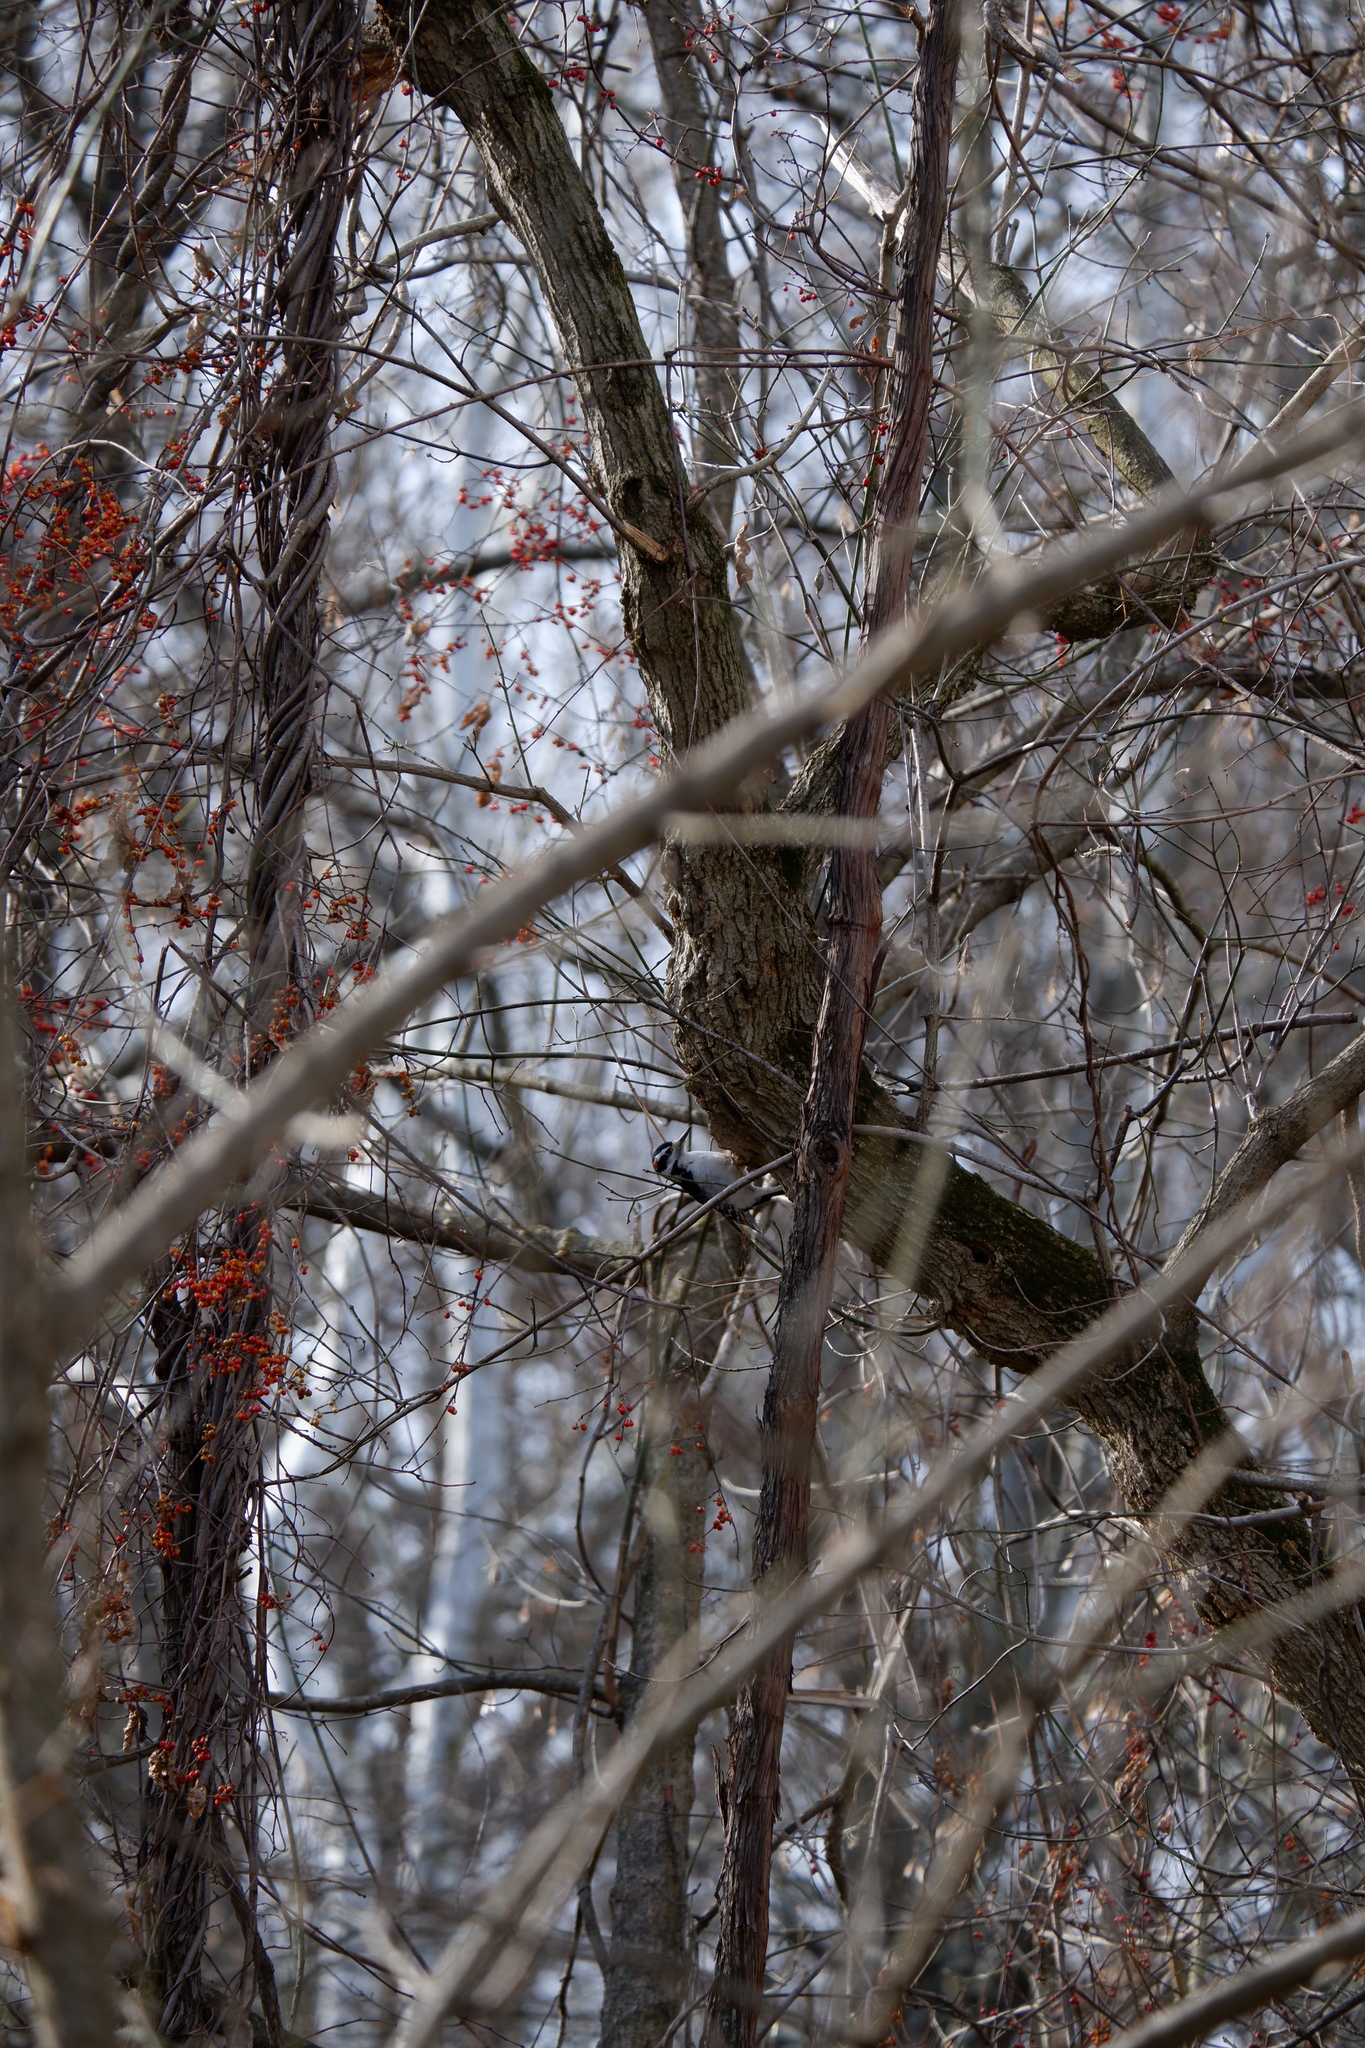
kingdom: Animalia
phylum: Chordata
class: Aves
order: Piciformes
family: Picidae
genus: Leuconotopicus
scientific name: Leuconotopicus villosus
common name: Hairy woodpecker
